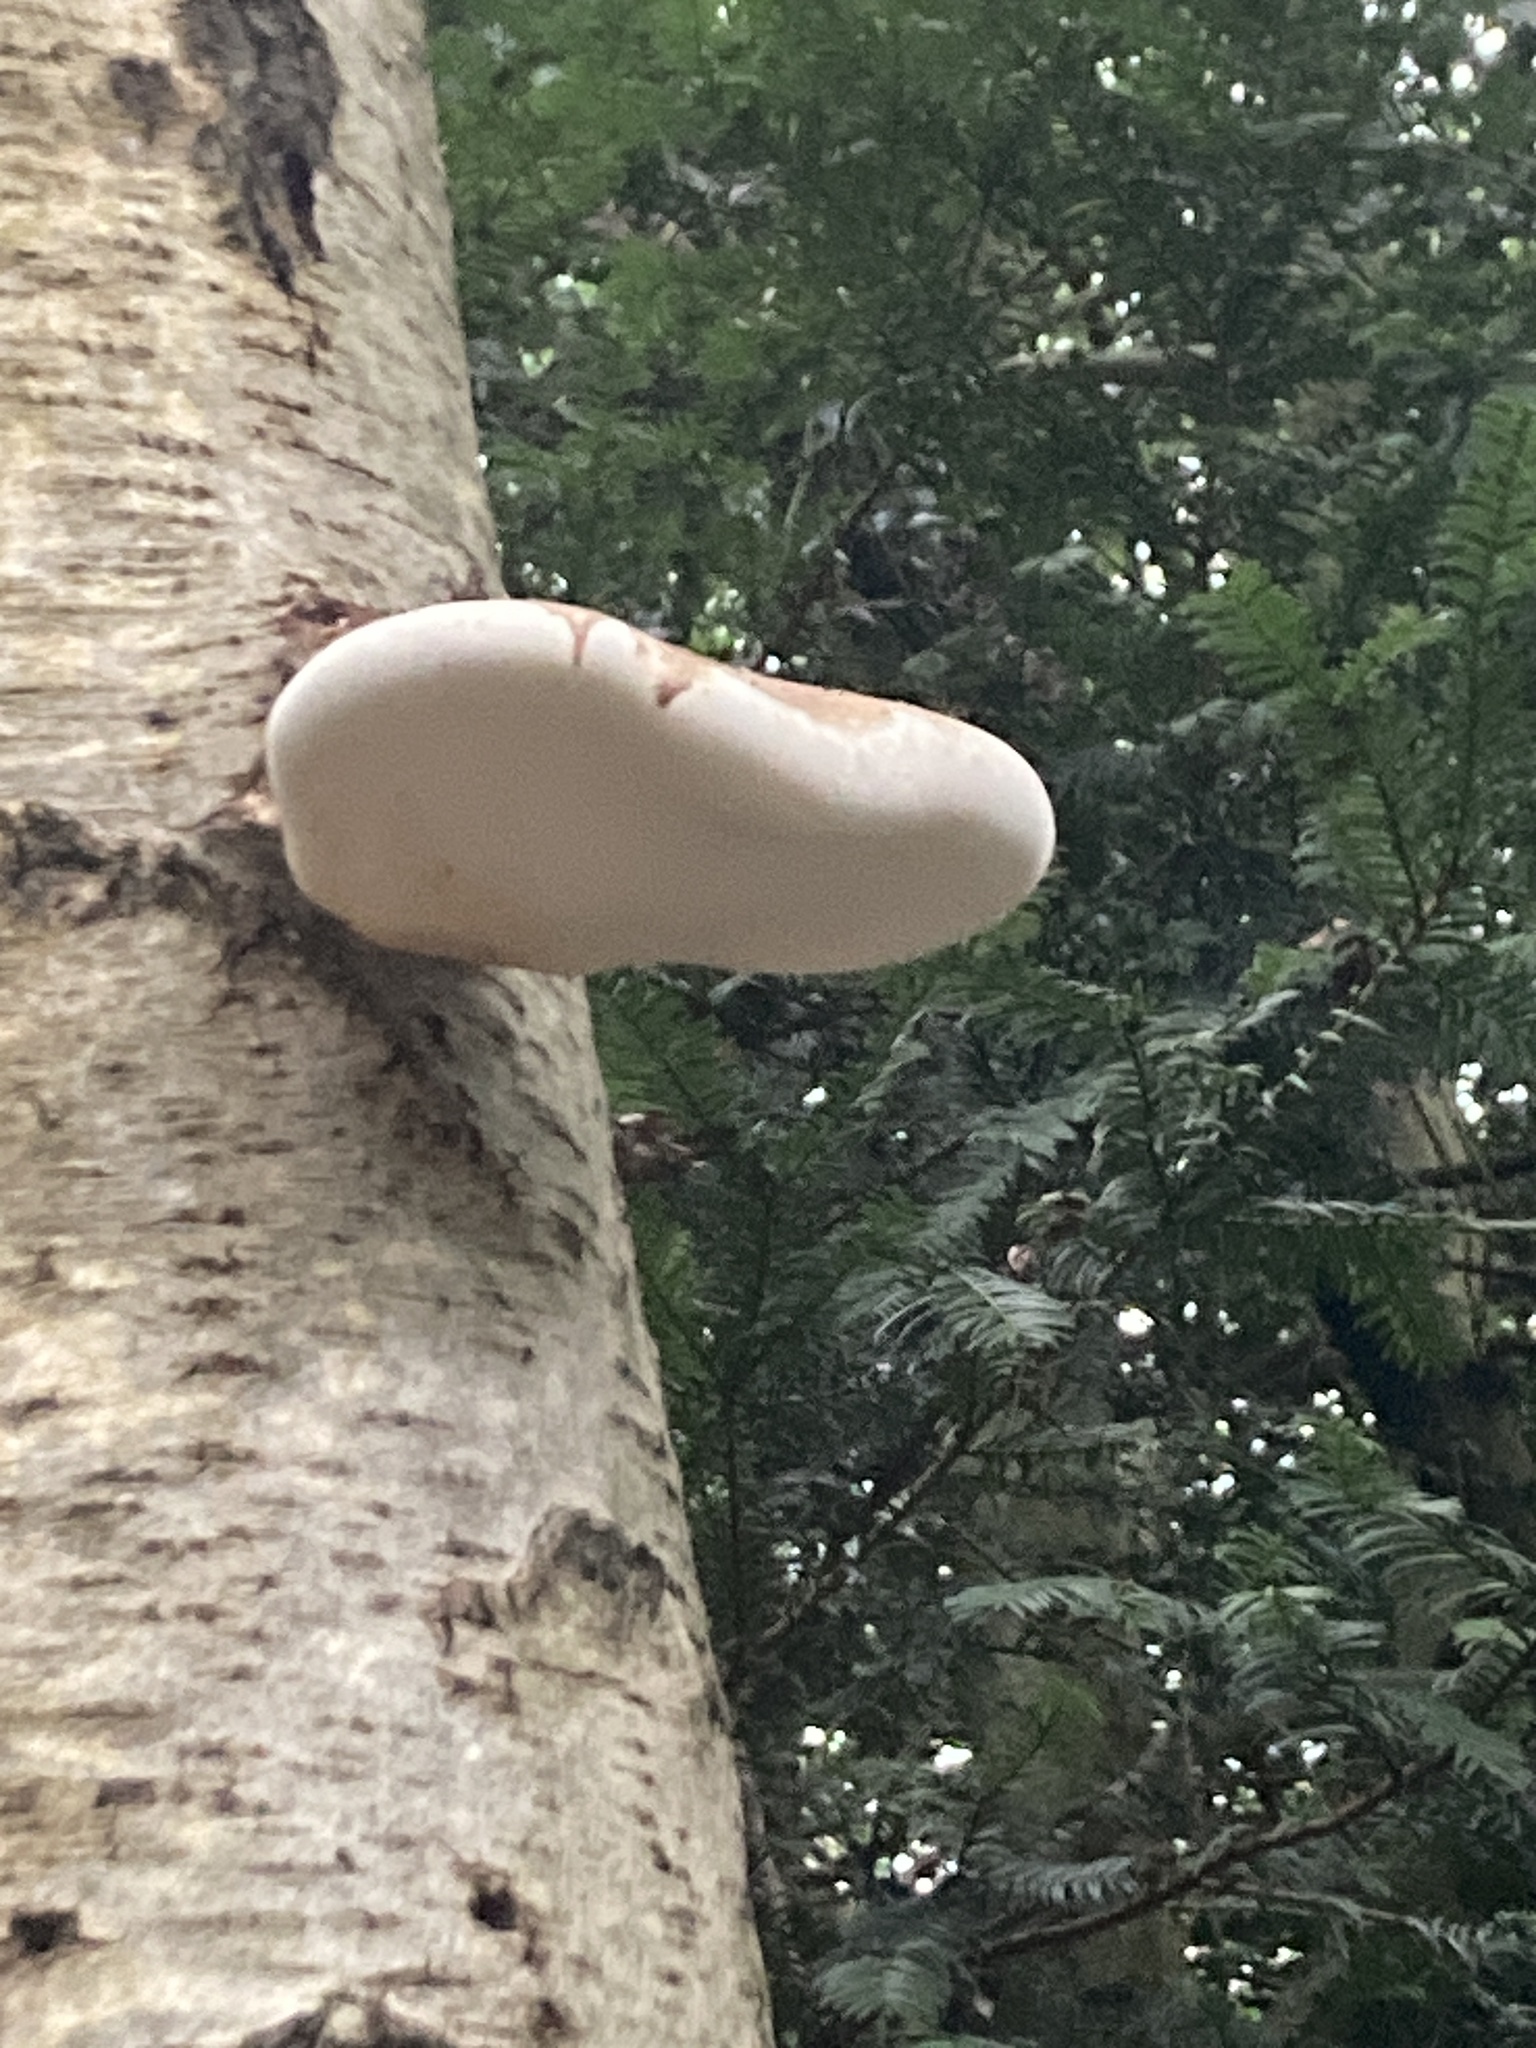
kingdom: Fungi
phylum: Basidiomycota
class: Agaricomycetes
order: Polyporales
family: Fomitopsidaceae
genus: Fomitopsis
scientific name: Fomitopsis betulina
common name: Birch polypore
